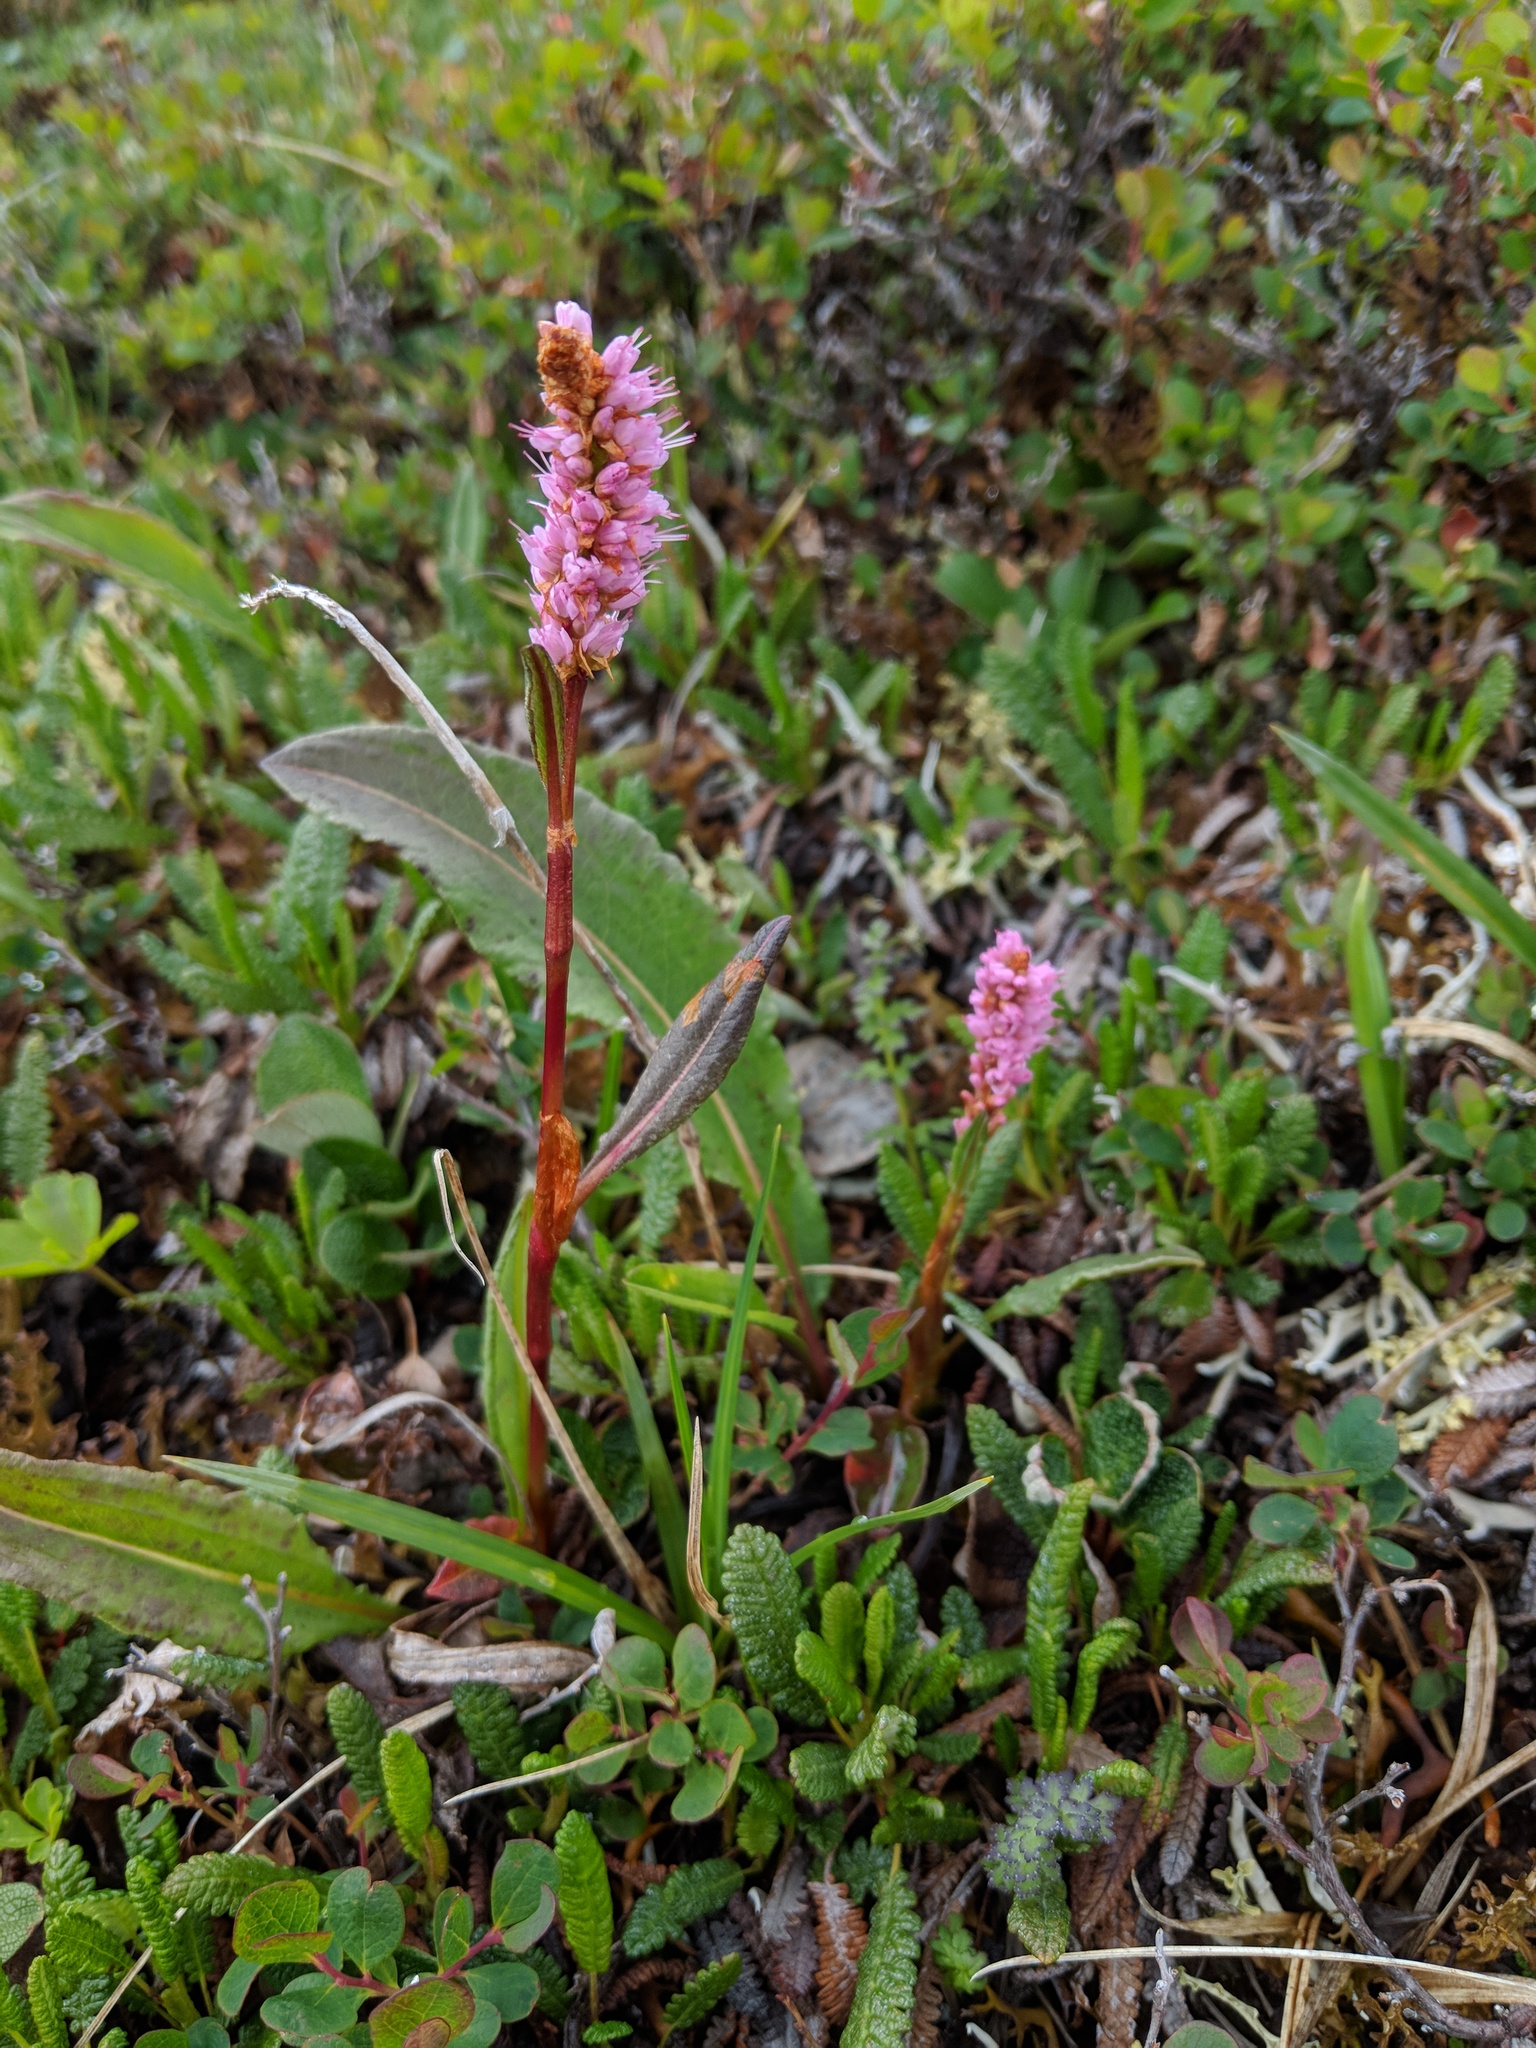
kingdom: Plantae
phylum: Tracheophyta
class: Magnoliopsida
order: Caryophyllales
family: Polygonaceae
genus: Bistorta
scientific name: Bistorta plumosa
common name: Meadow bistort
